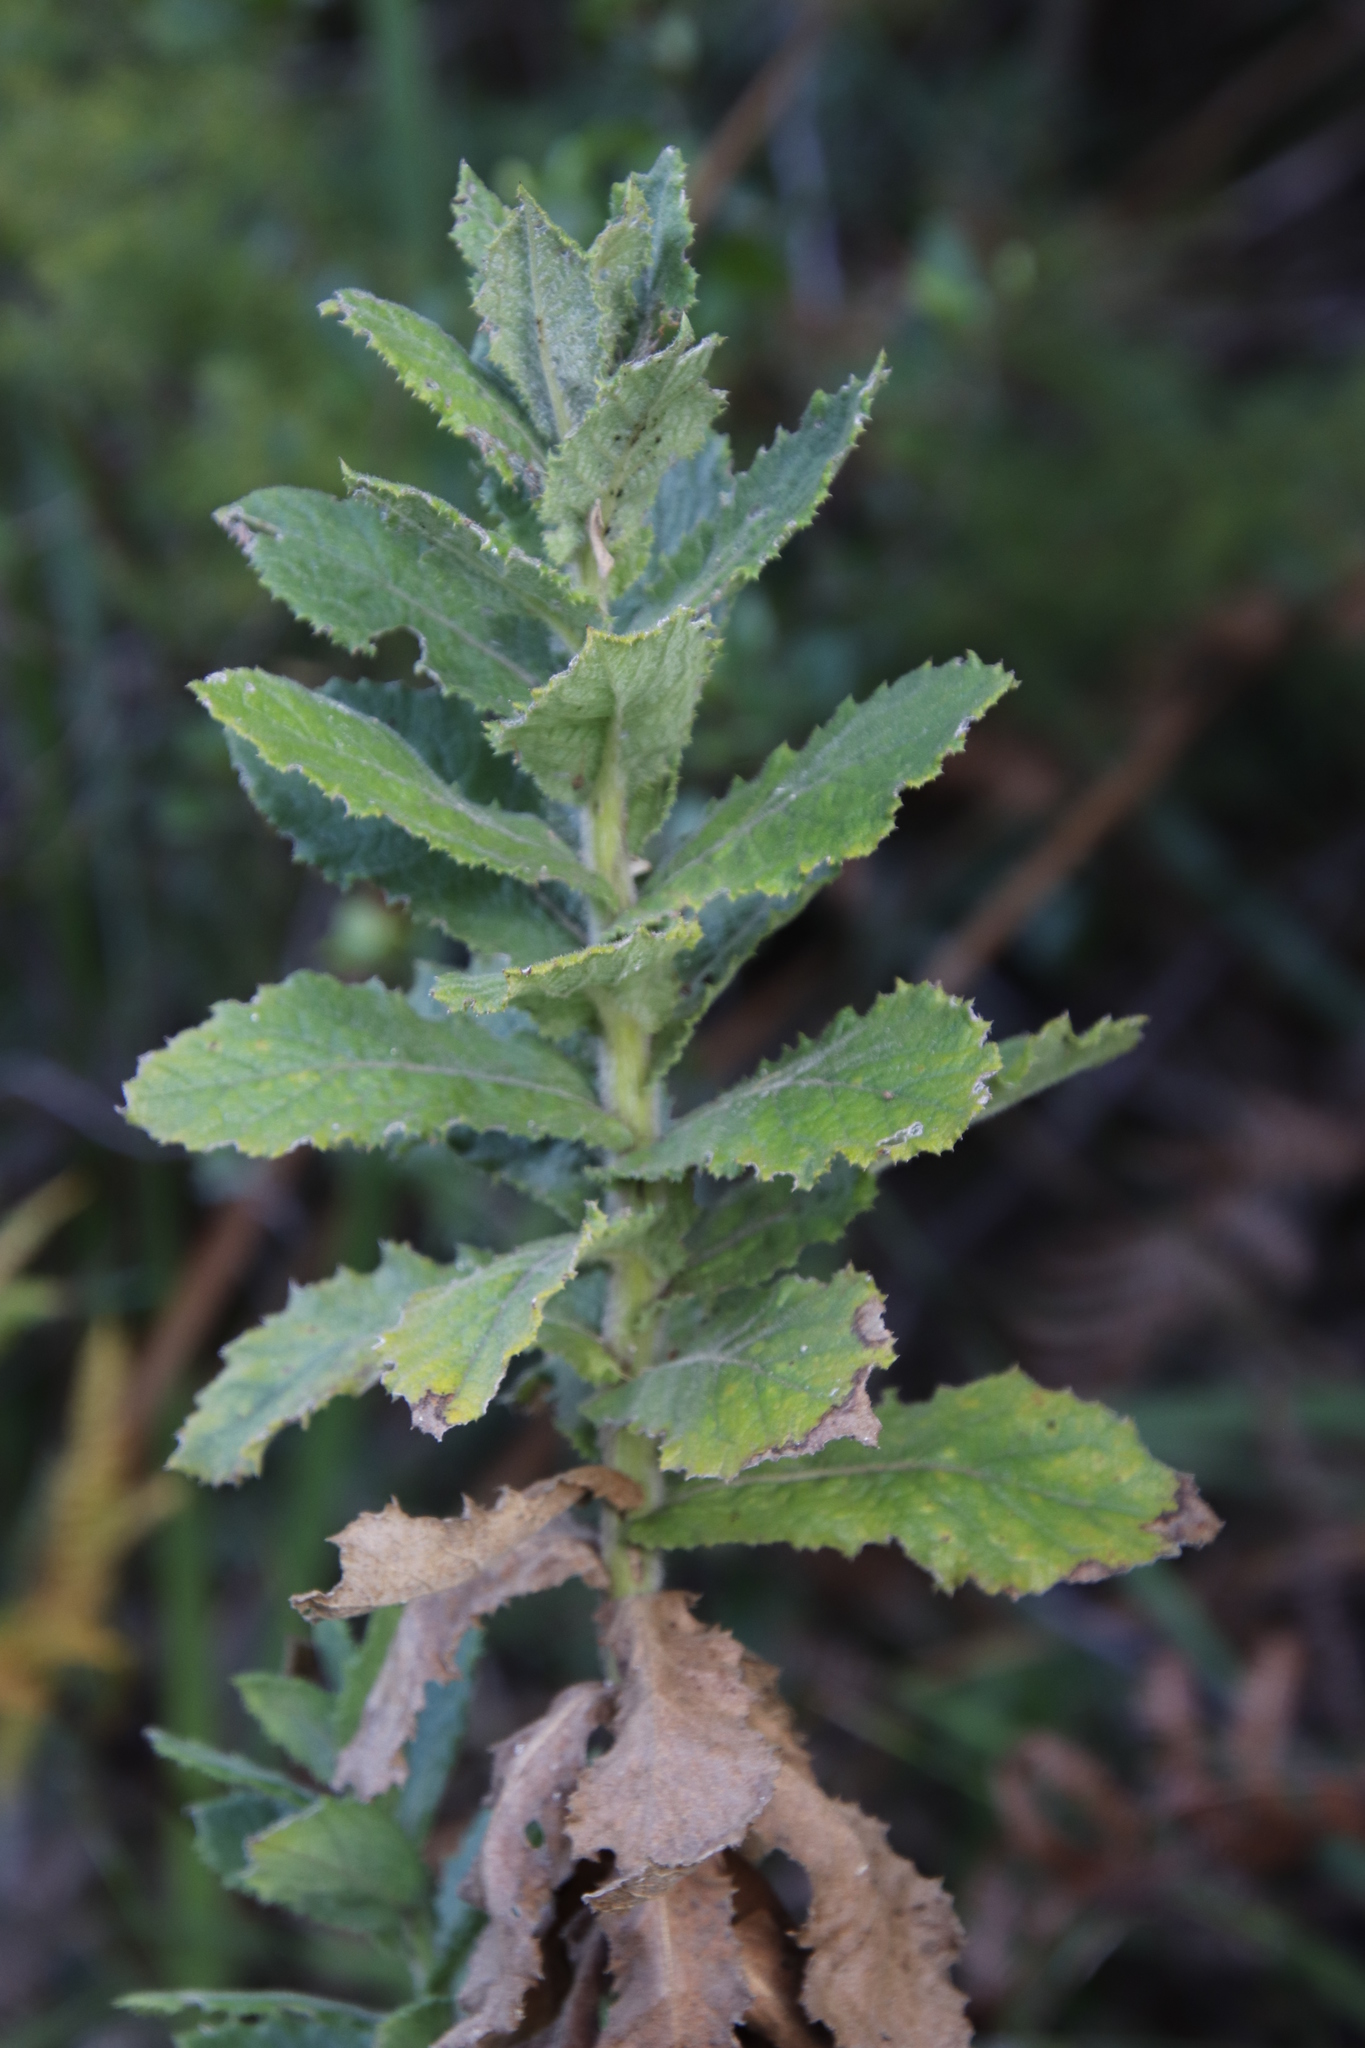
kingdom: Plantae
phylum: Tracheophyta
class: Magnoliopsida
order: Asterales
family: Asteraceae
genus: Senecio
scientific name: Senecio rigidus
